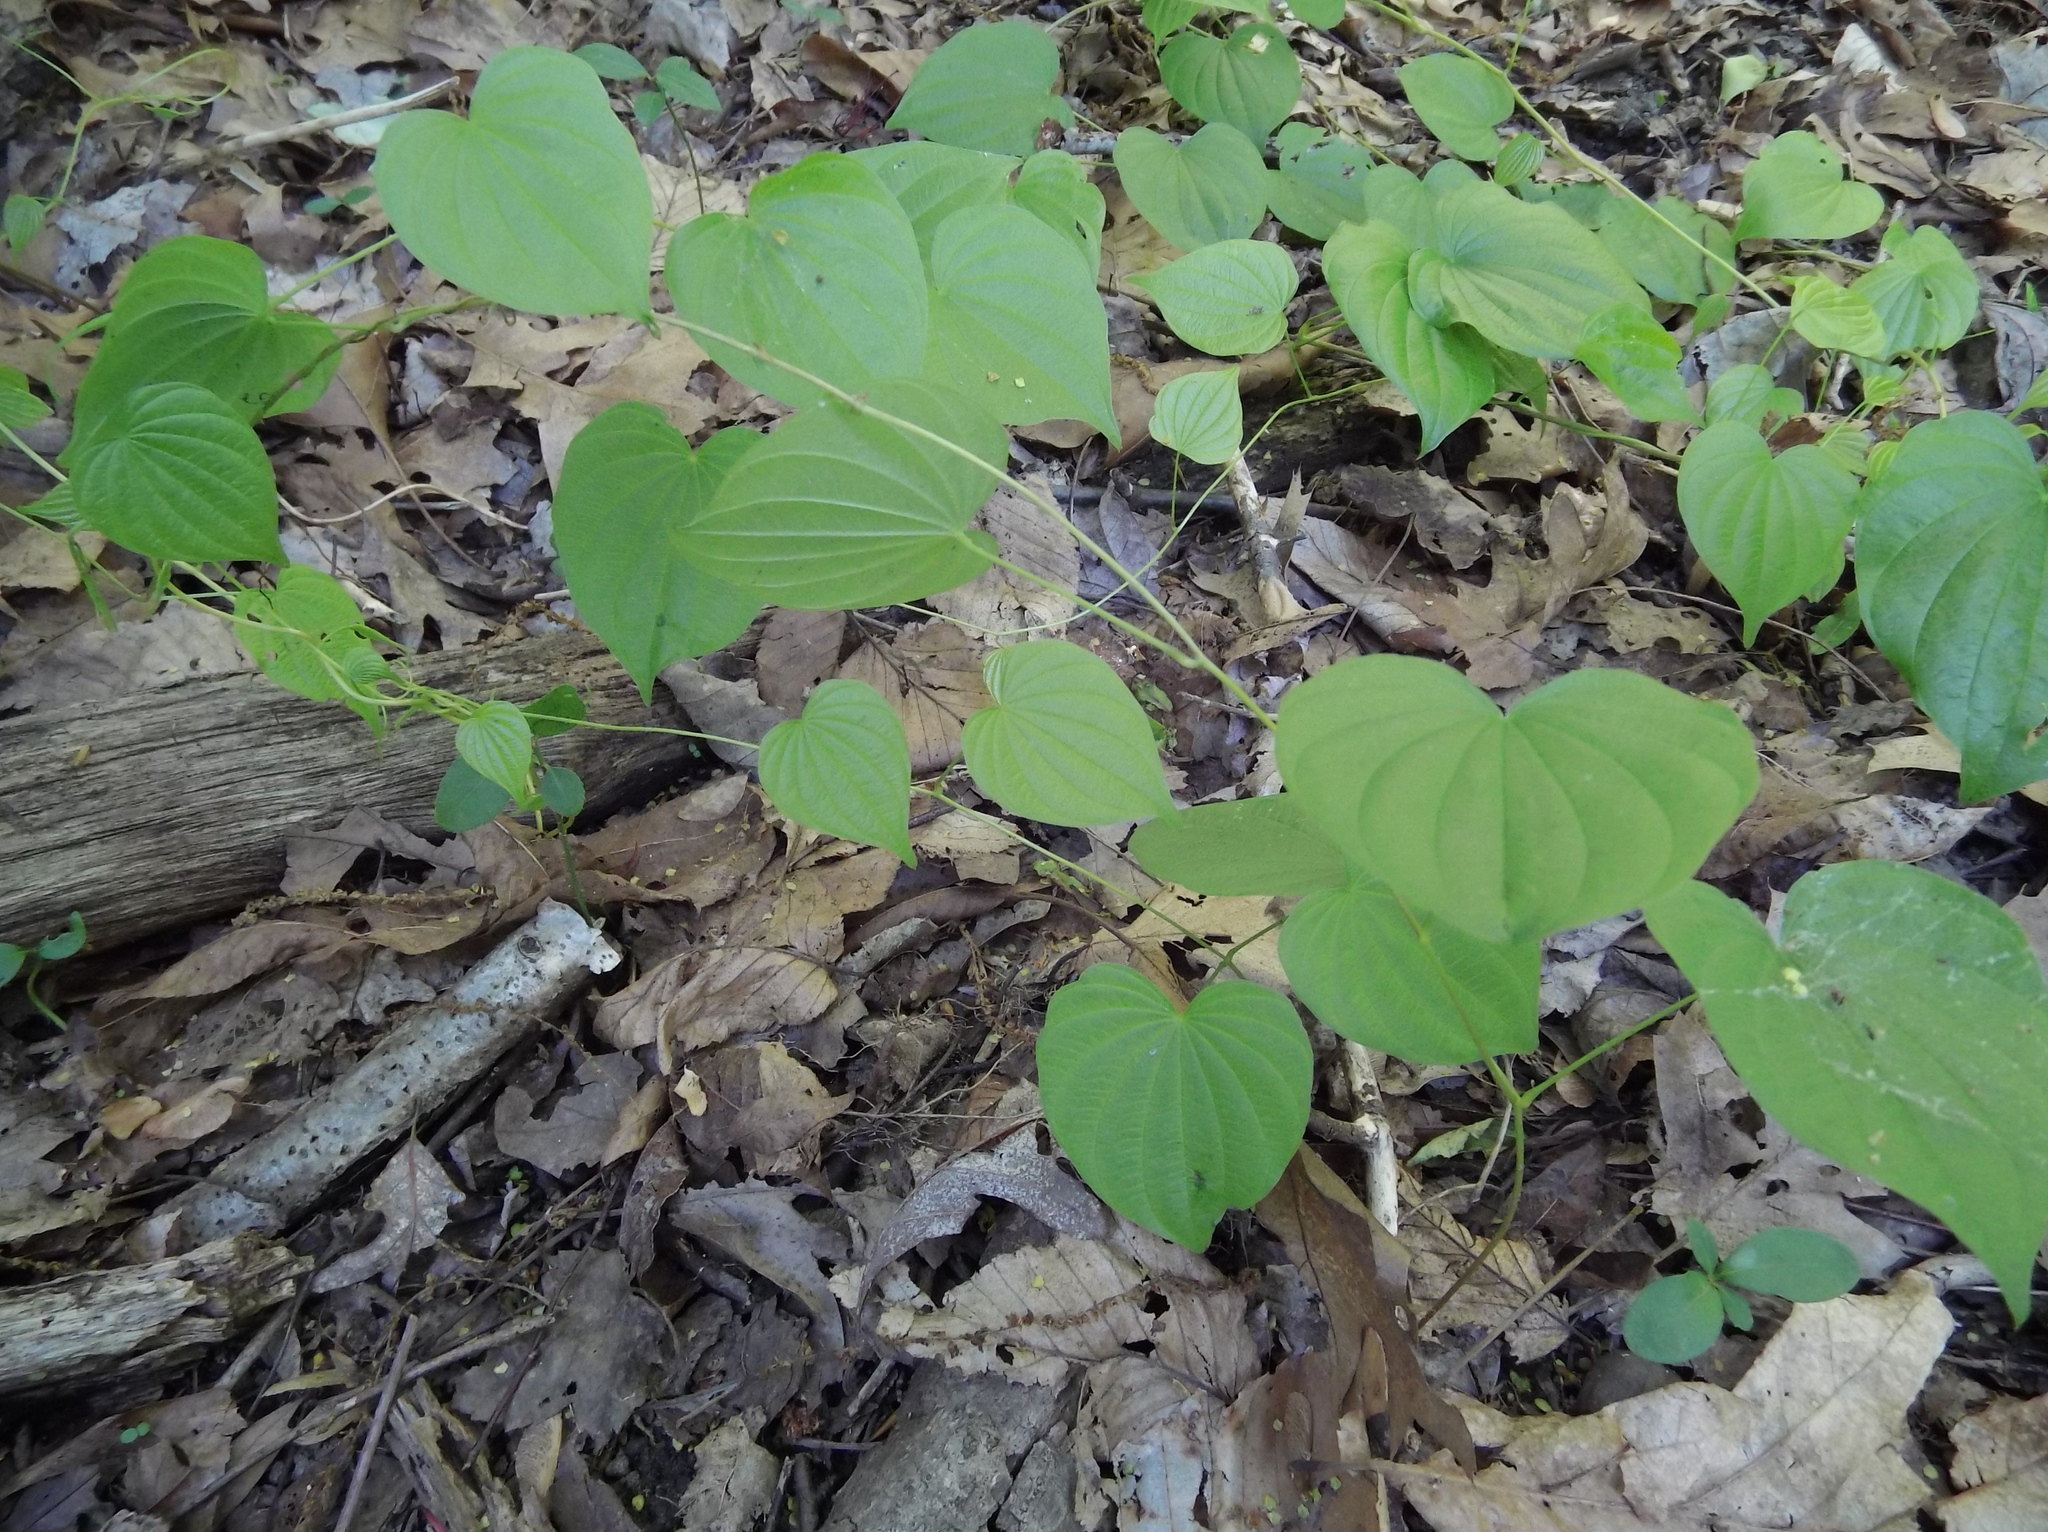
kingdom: Plantae
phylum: Tracheophyta
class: Liliopsida
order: Dioscoreales
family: Dioscoreaceae
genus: Dioscorea
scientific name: Dioscorea villosa
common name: Wild yam
